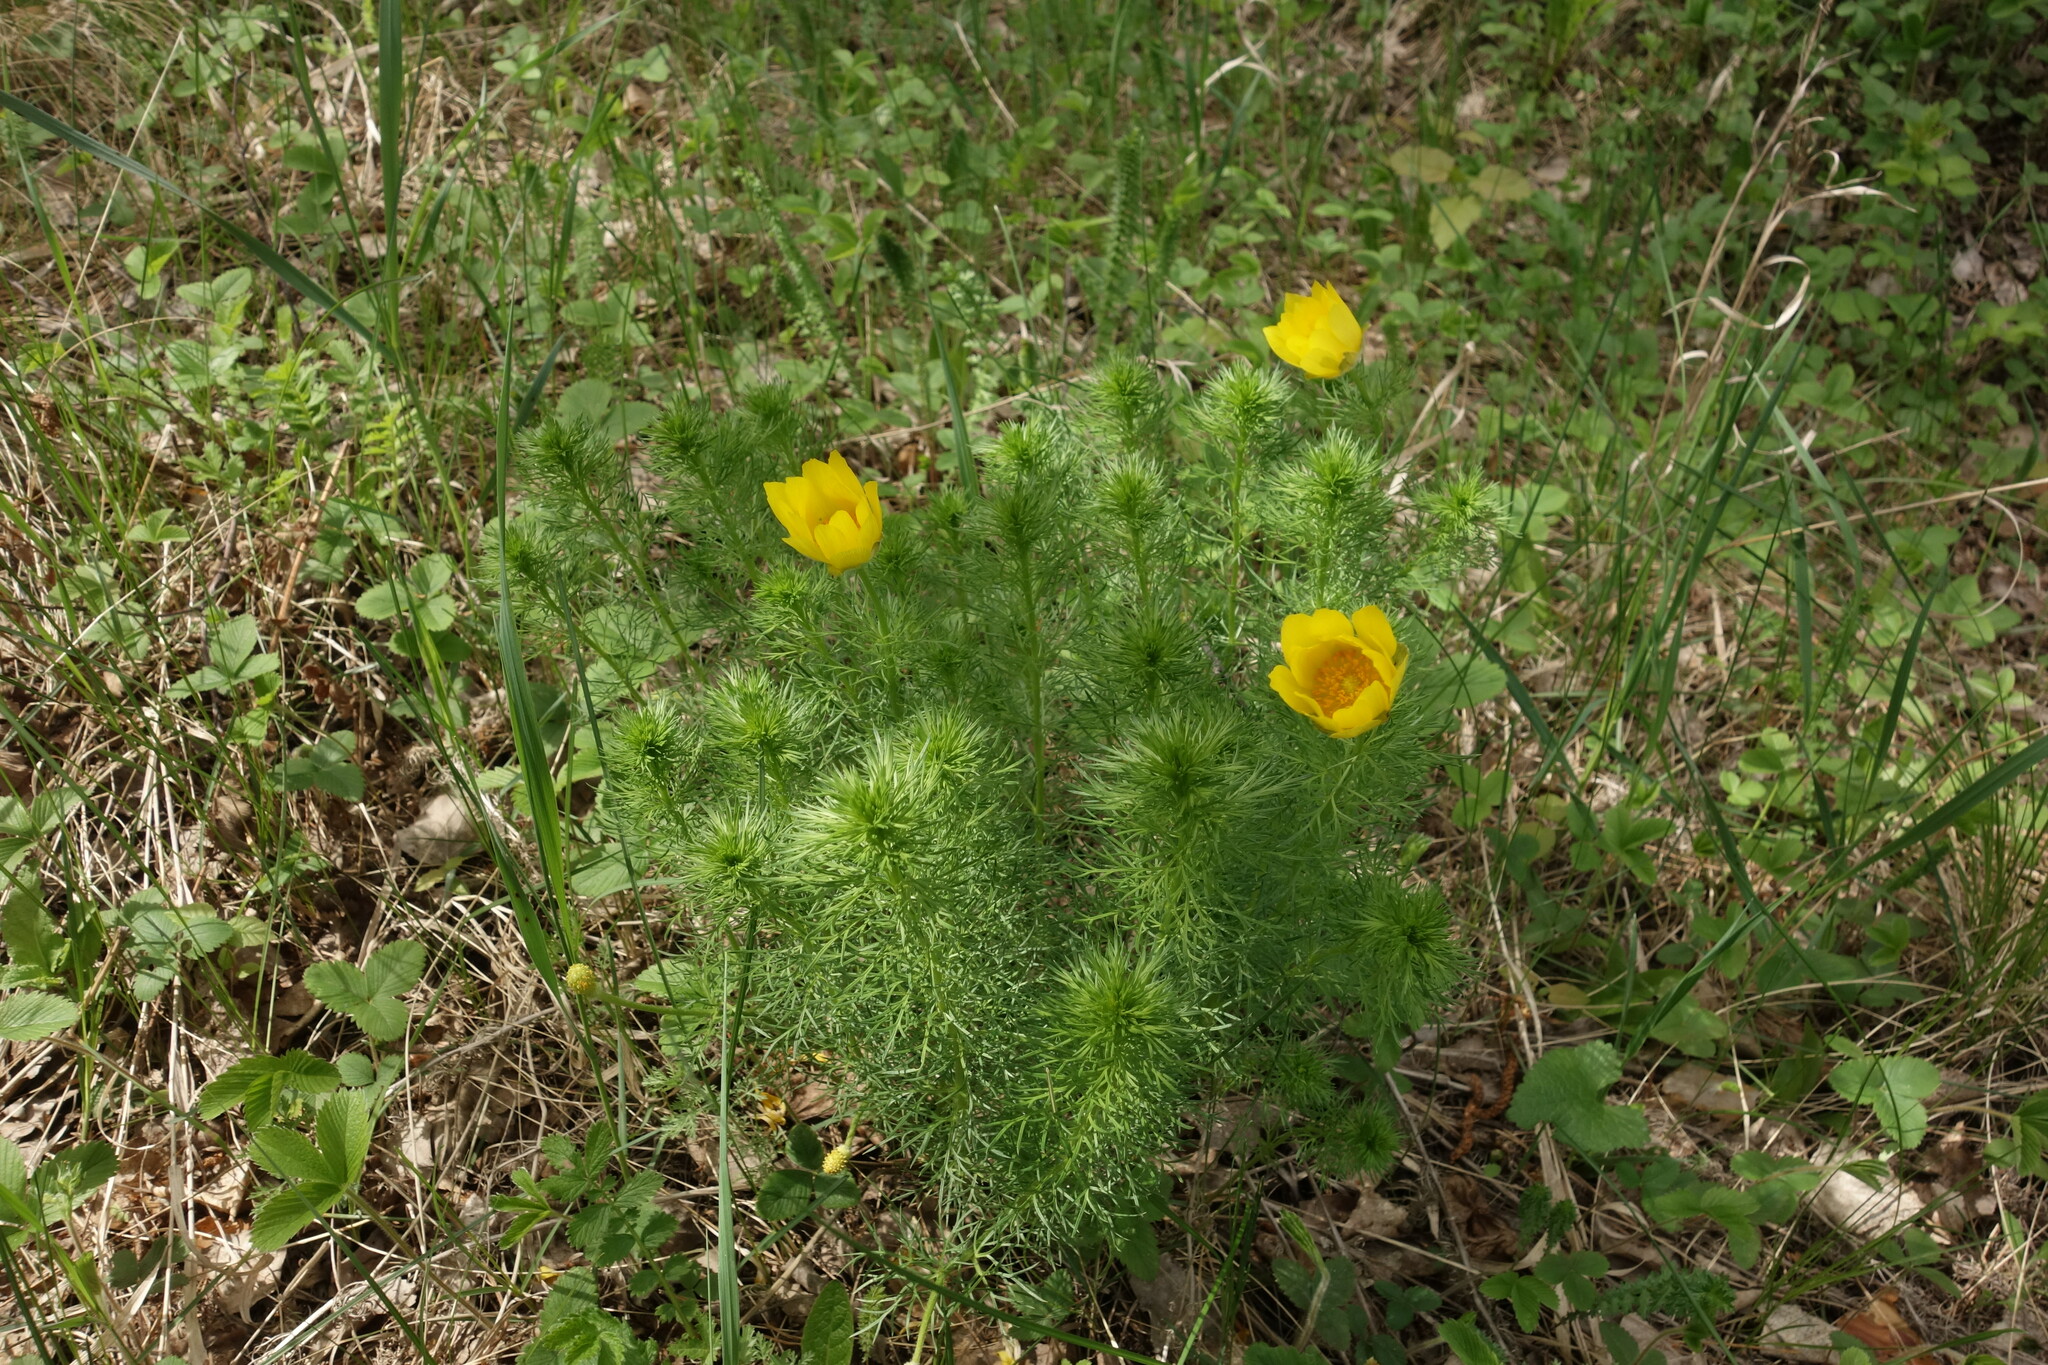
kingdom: Plantae
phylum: Tracheophyta
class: Magnoliopsida
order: Ranunculales
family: Ranunculaceae
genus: Adonis
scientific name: Adonis vernalis
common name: Yellow pheasants-eye
